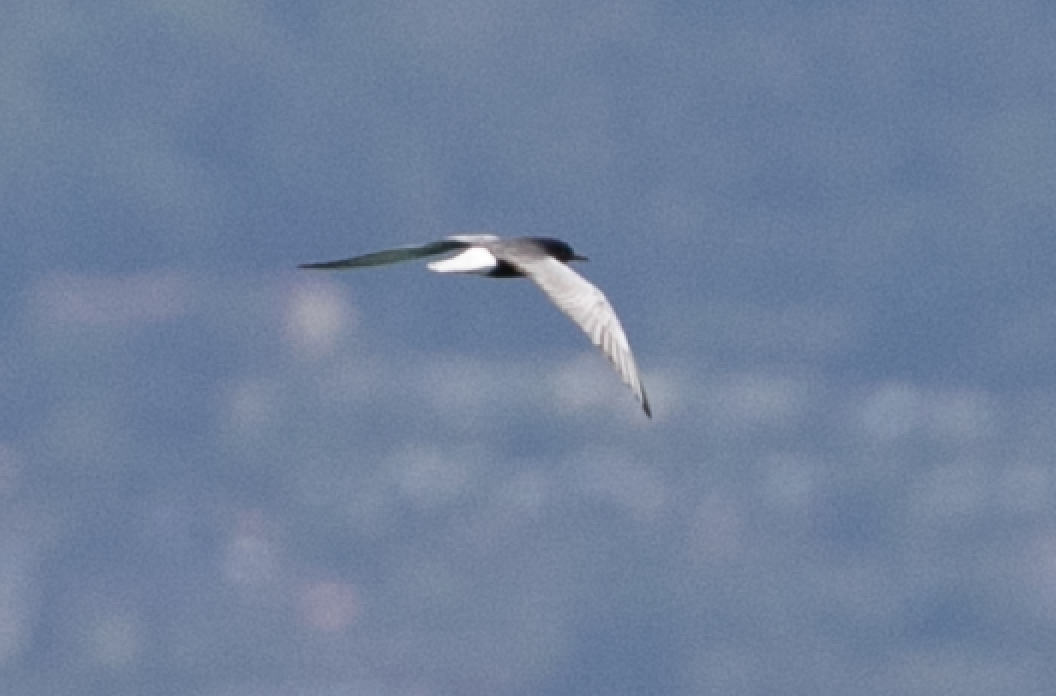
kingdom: Animalia
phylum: Chordata
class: Aves
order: Charadriiformes
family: Laridae
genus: Chlidonias
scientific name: Chlidonias leucopterus
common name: White-winged tern
